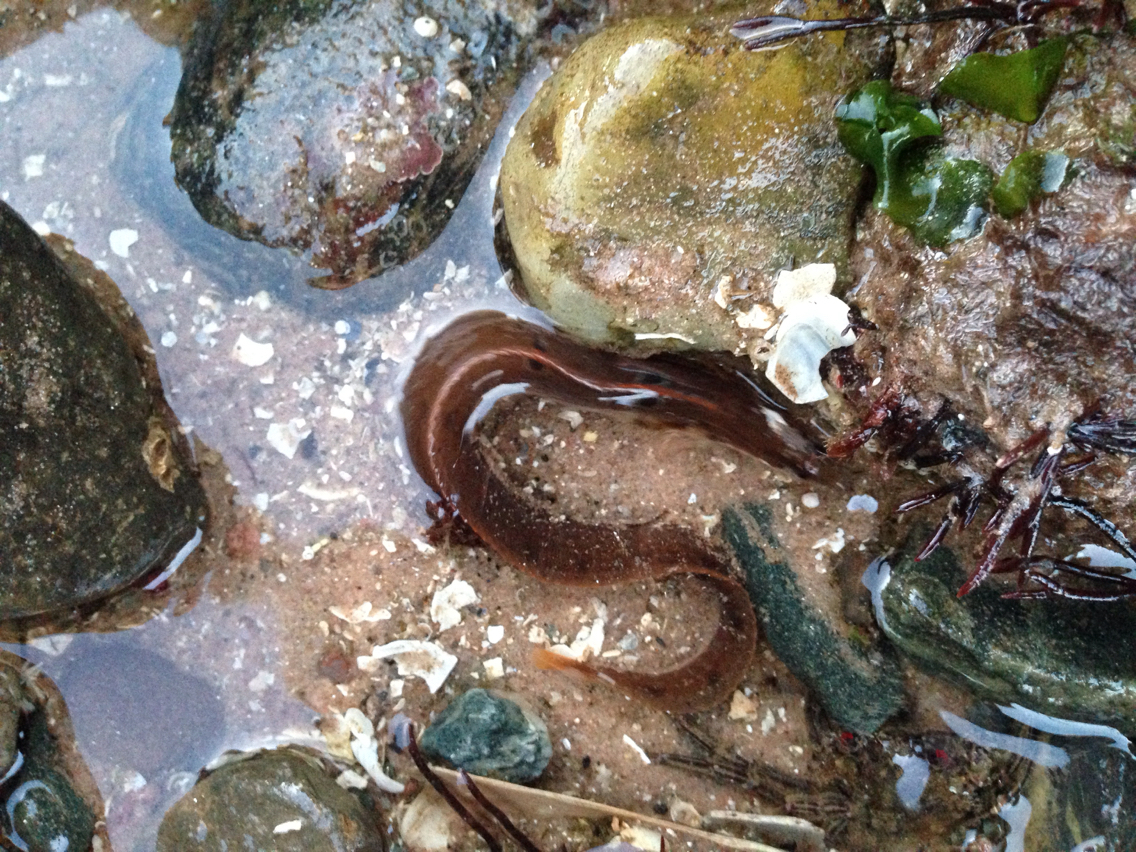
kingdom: Animalia
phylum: Chordata
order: Perciformes
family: Pholidae
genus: Pholis
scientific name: Pholis gunnellus
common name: Butterfish
